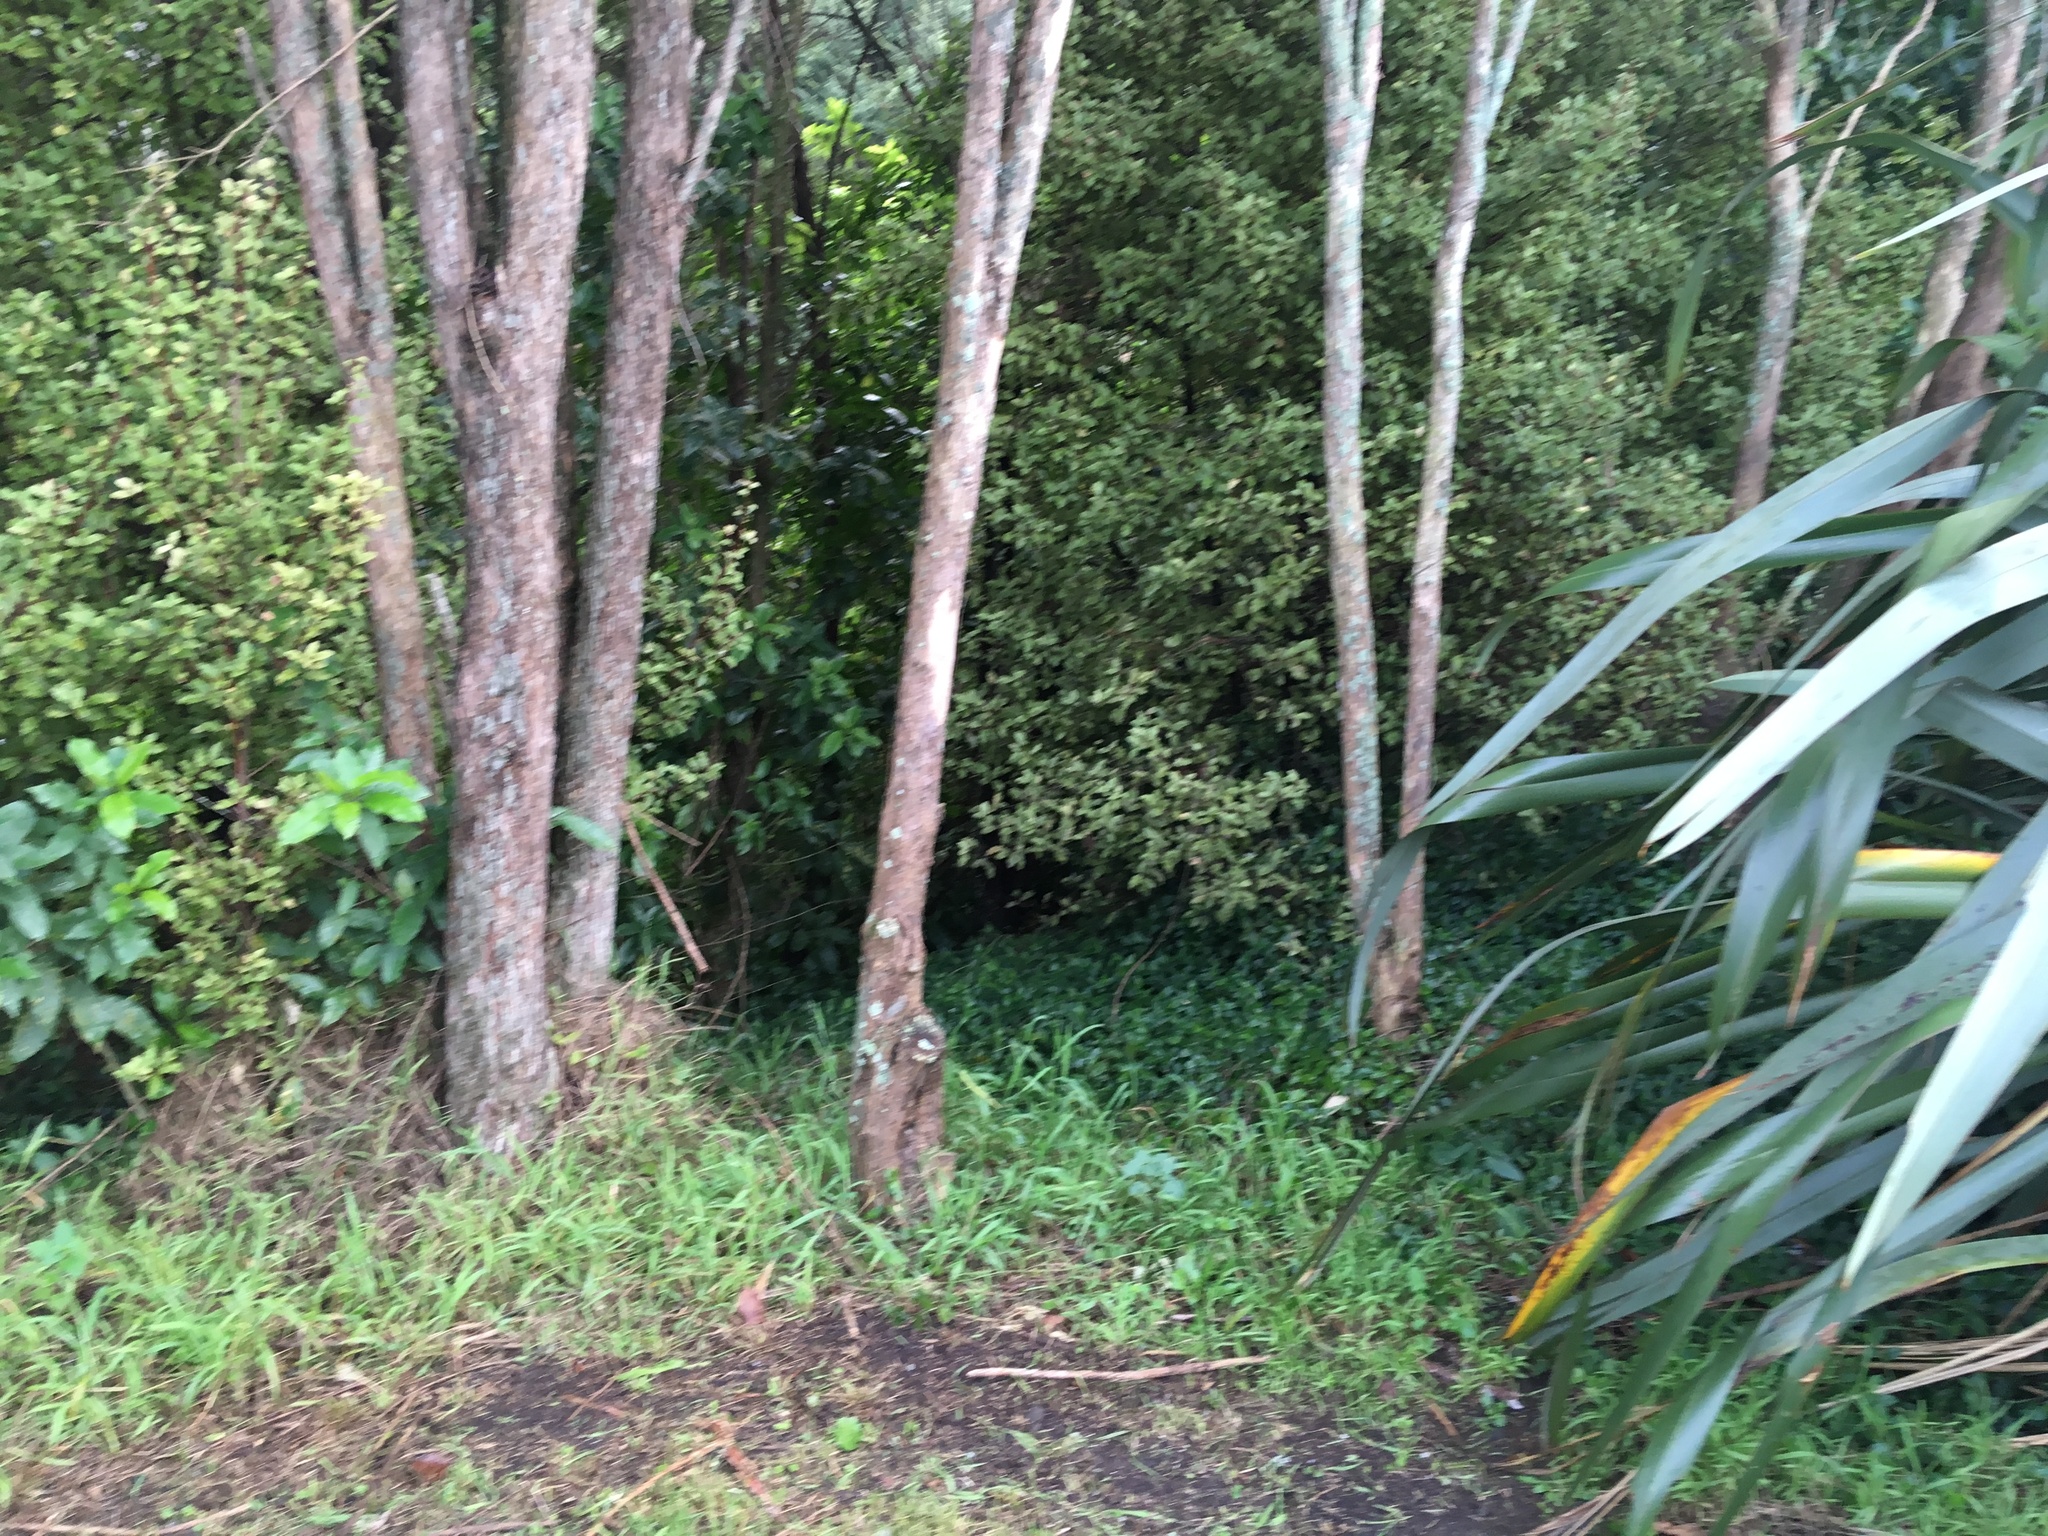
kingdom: Plantae
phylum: Tracheophyta
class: Liliopsida
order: Commelinales
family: Commelinaceae
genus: Tradescantia
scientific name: Tradescantia fluminensis
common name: Wandering-jew
